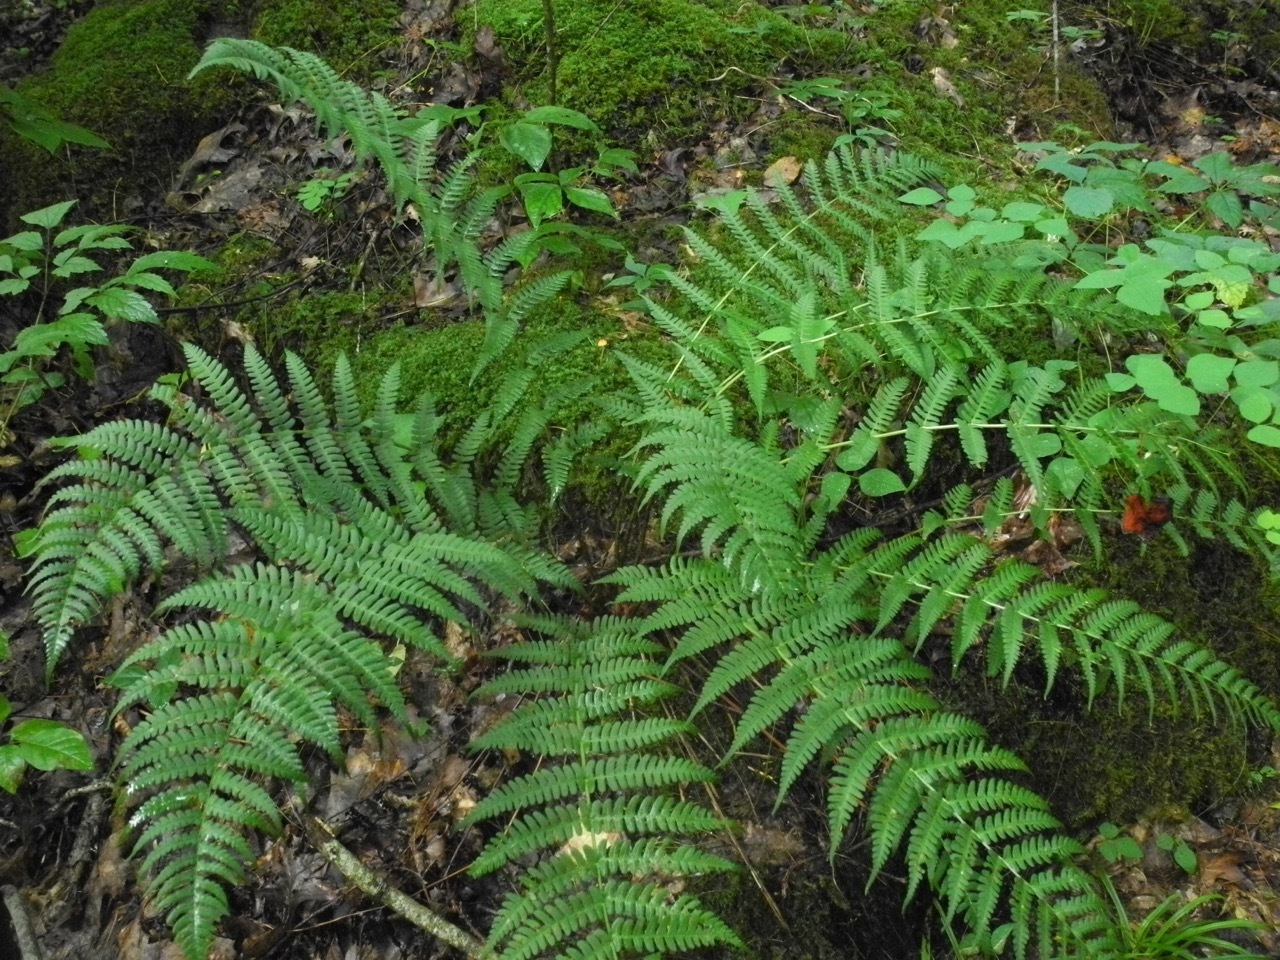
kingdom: Plantae
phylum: Tracheophyta
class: Polypodiopsida
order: Polypodiales
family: Dryopteridaceae
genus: Dryopteris
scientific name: Dryopteris marginalis
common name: Marginal wood fern
